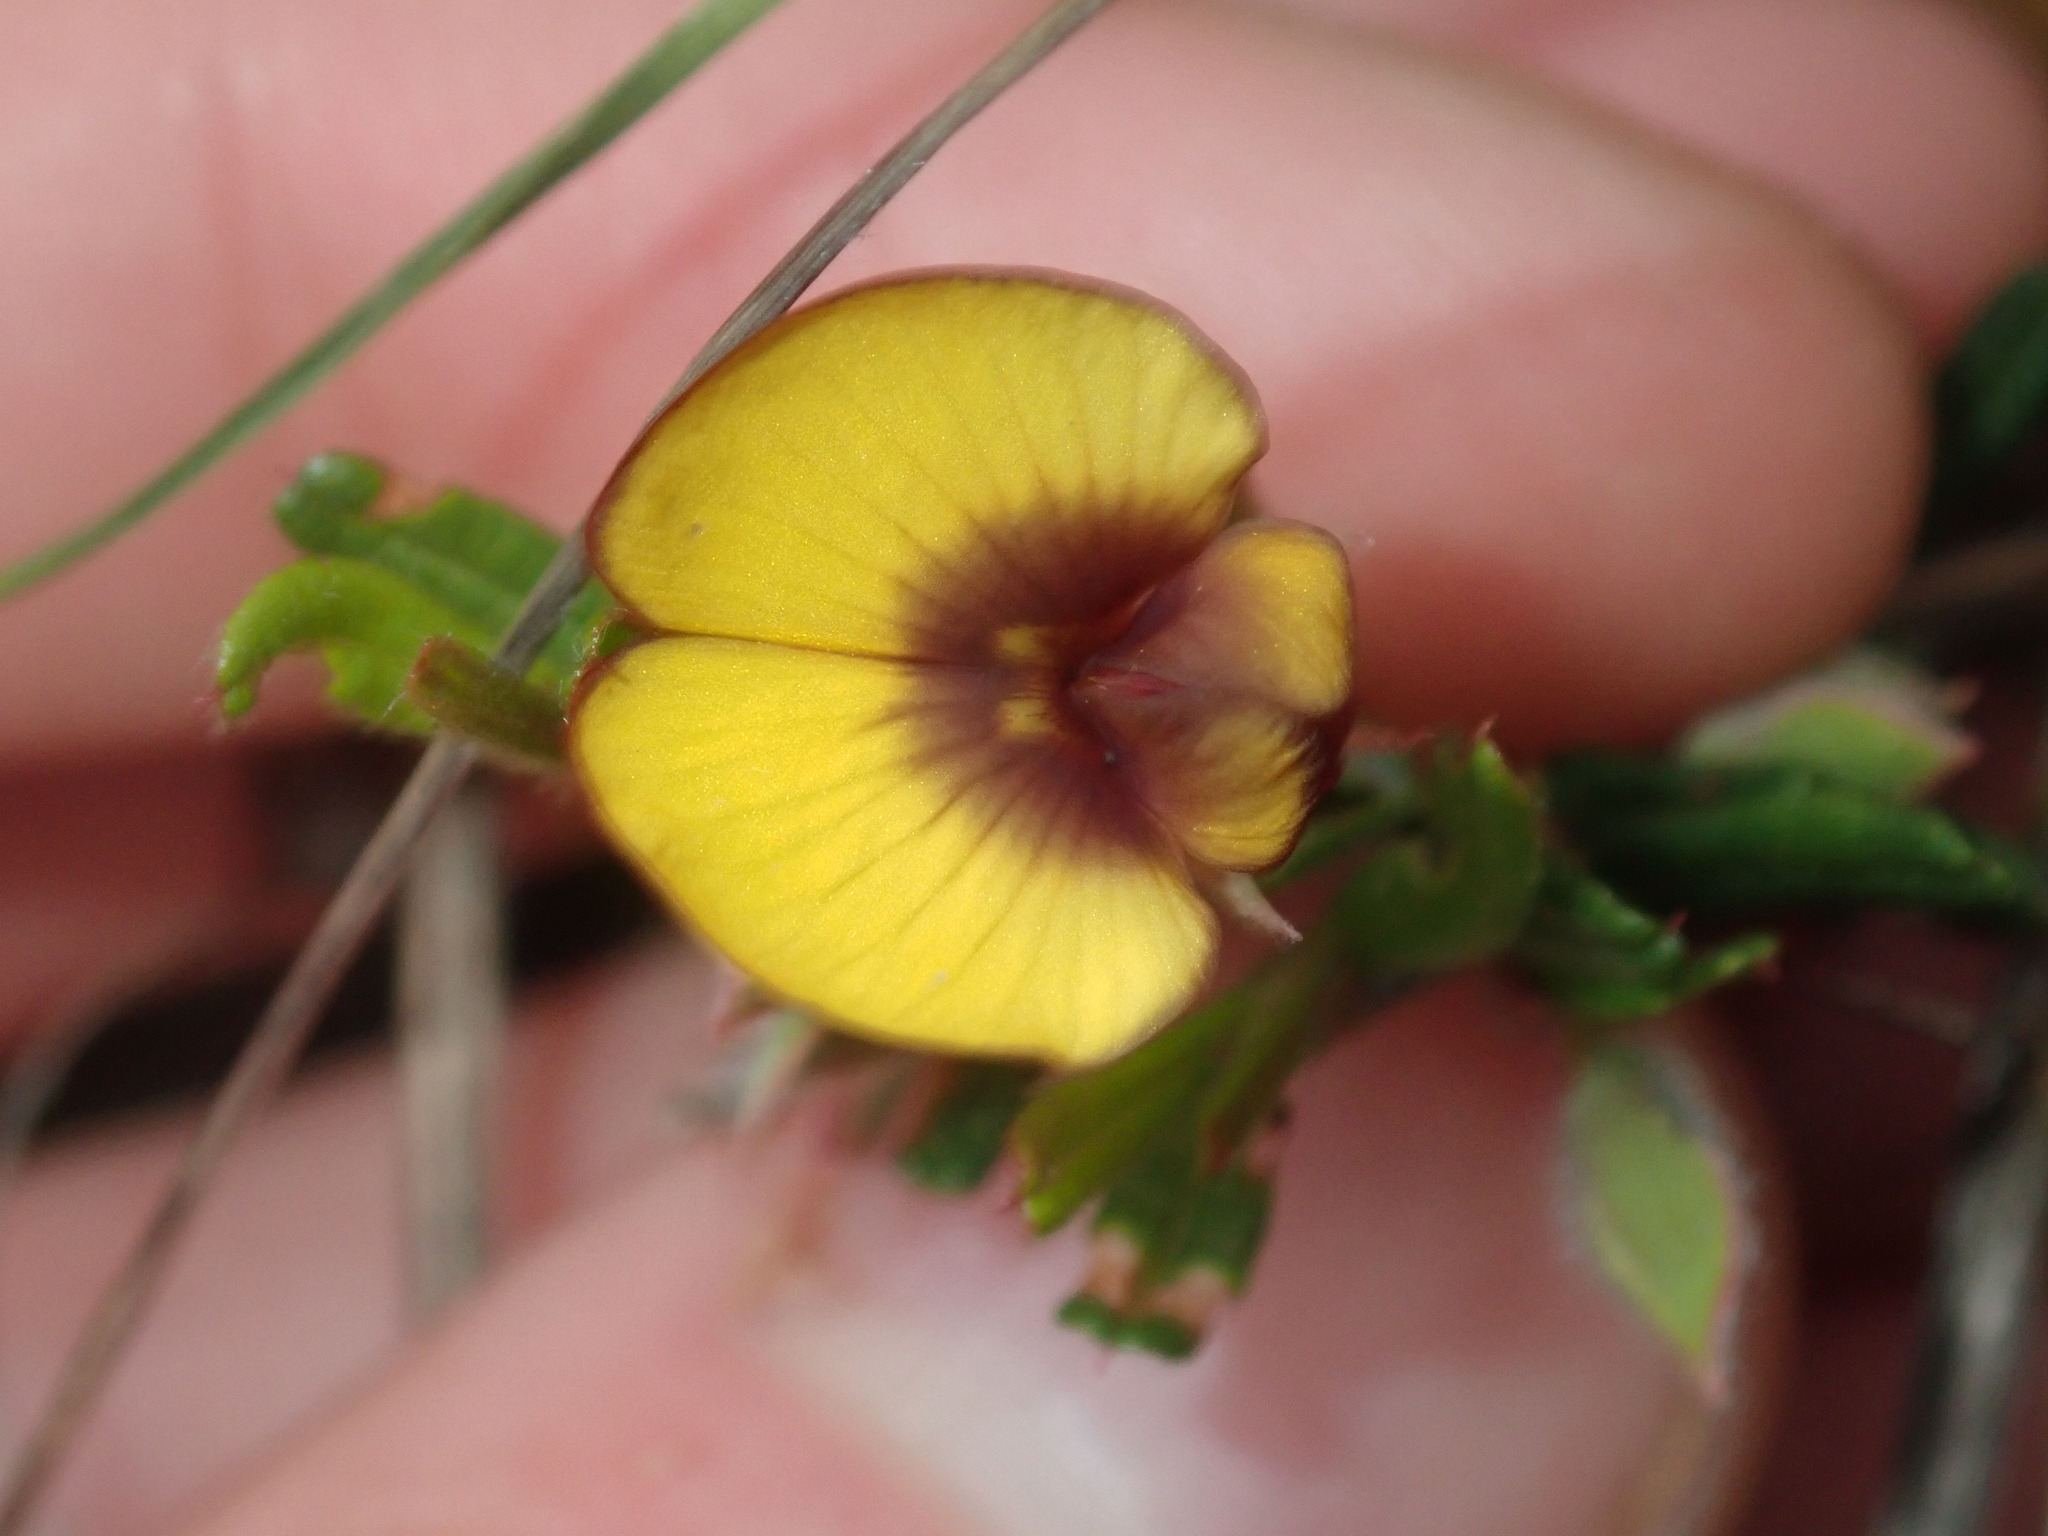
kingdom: Plantae
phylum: Tracheophyta
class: Magnoliopsida
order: Fabales
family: Fabaceae
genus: Bossiaea
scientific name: Bossiaea eriocarpa
